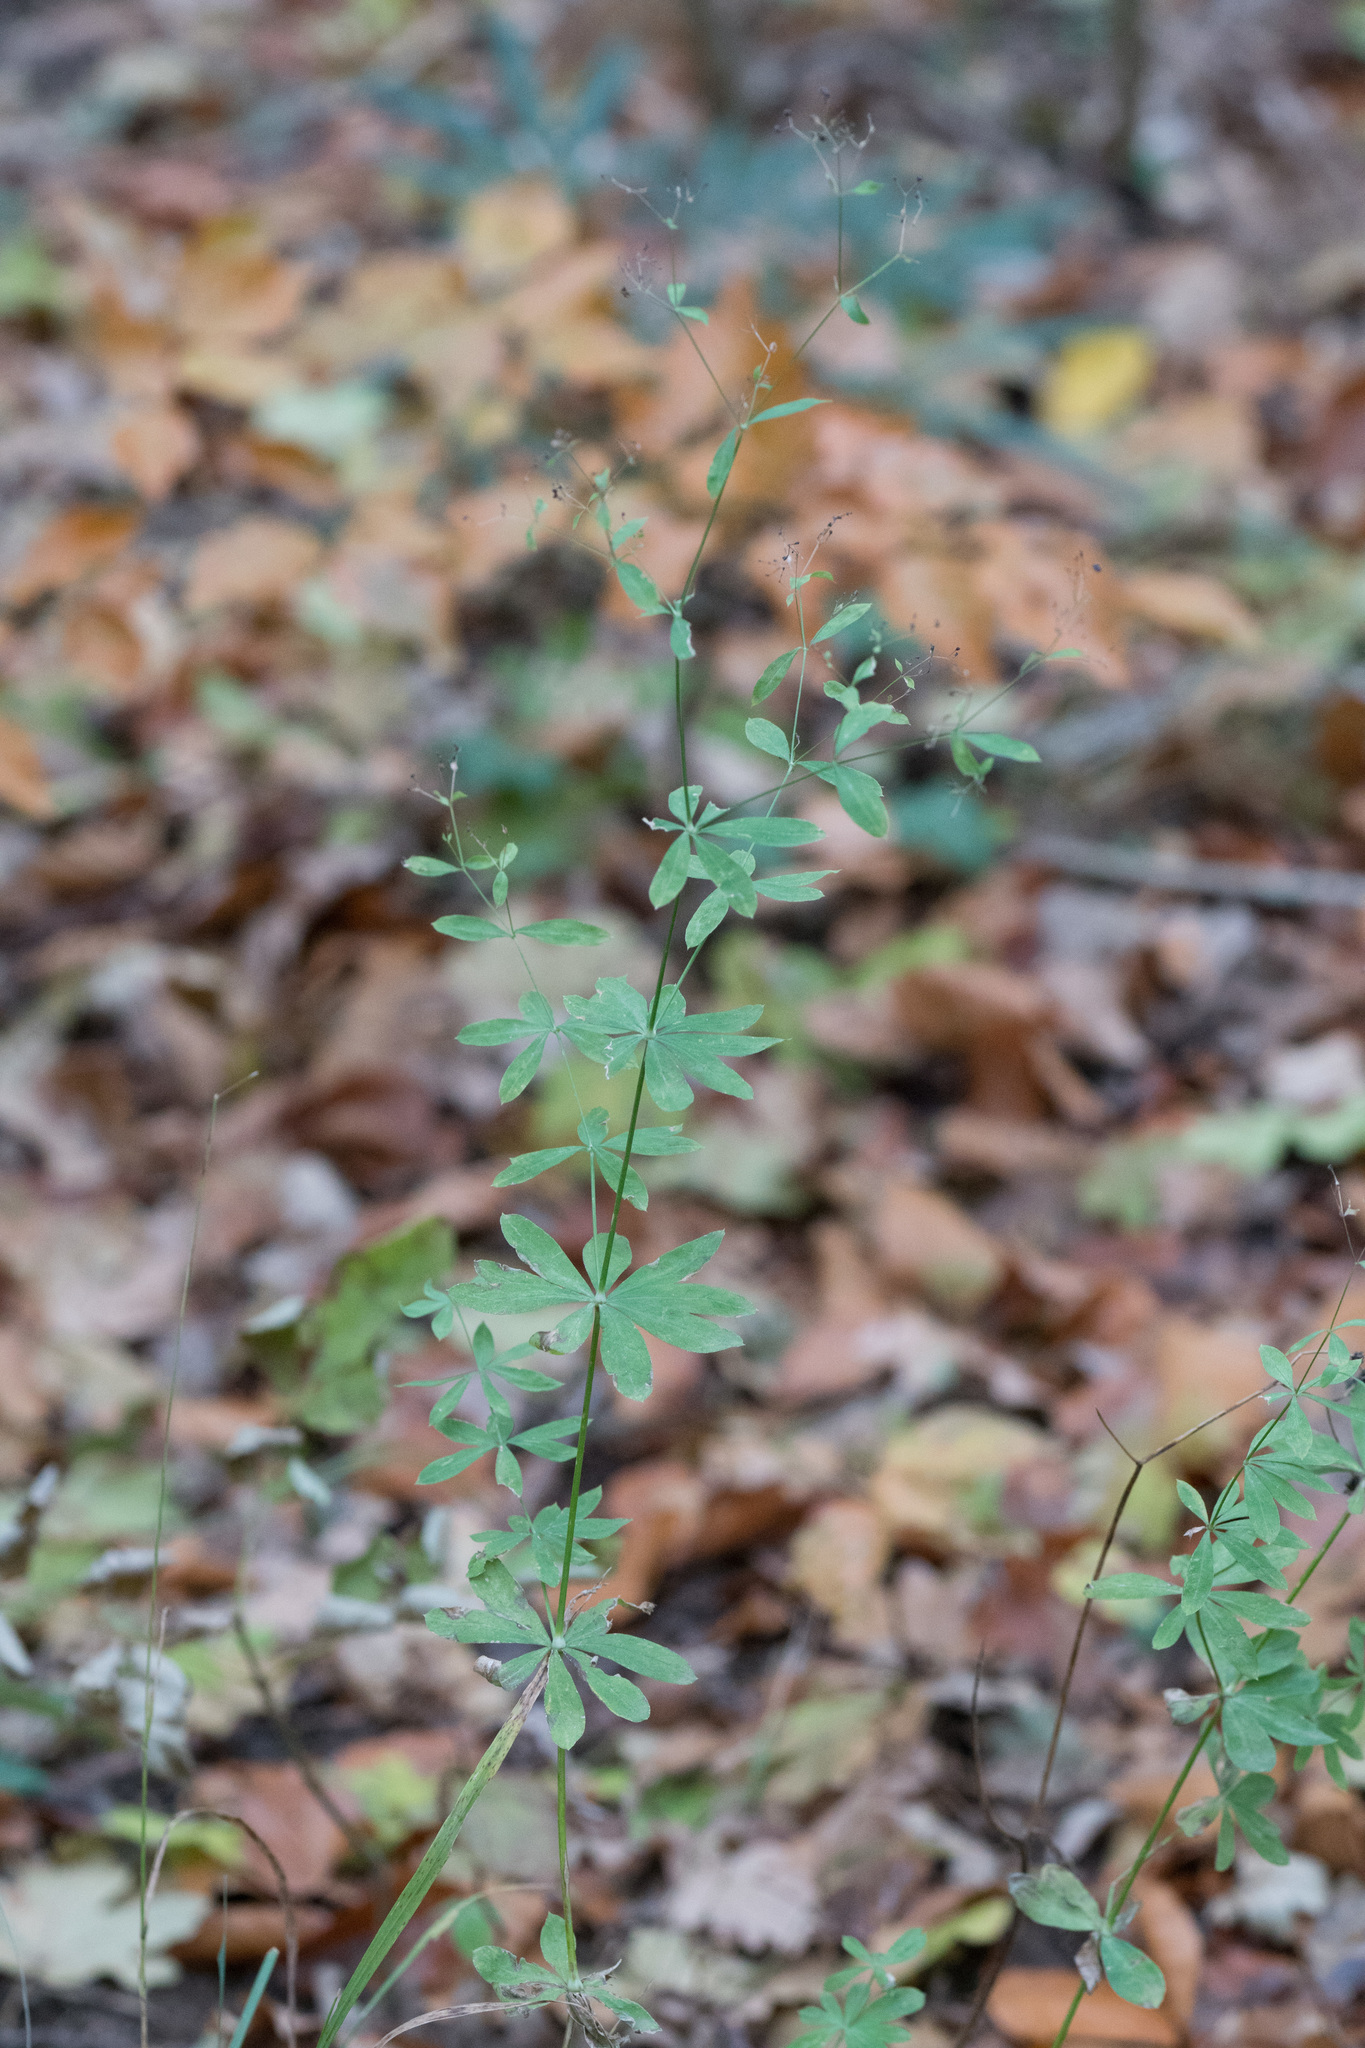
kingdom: Plantae
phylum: Tracheophyta
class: Magnoliopsida
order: Gentianales
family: Rubiaceae
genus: Galium
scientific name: Galium sylvaticum
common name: Wood bedstraw
